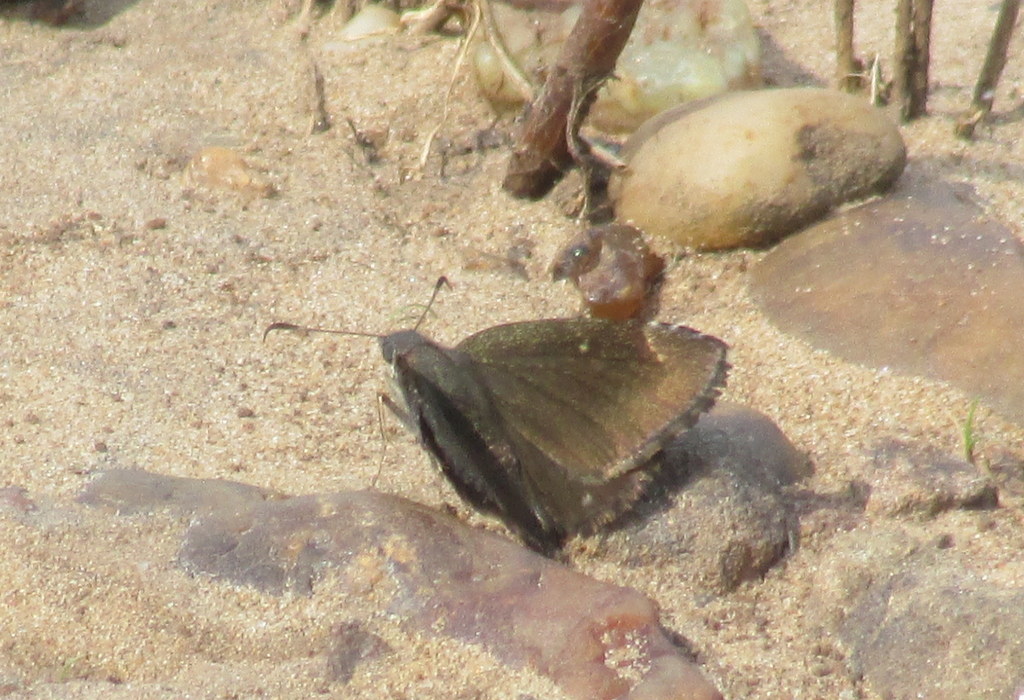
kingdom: Animalia
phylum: Arthropoda
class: Insecta
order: Lepidoptera
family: Hesperiidae
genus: Caicella
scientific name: Caicella calchas
